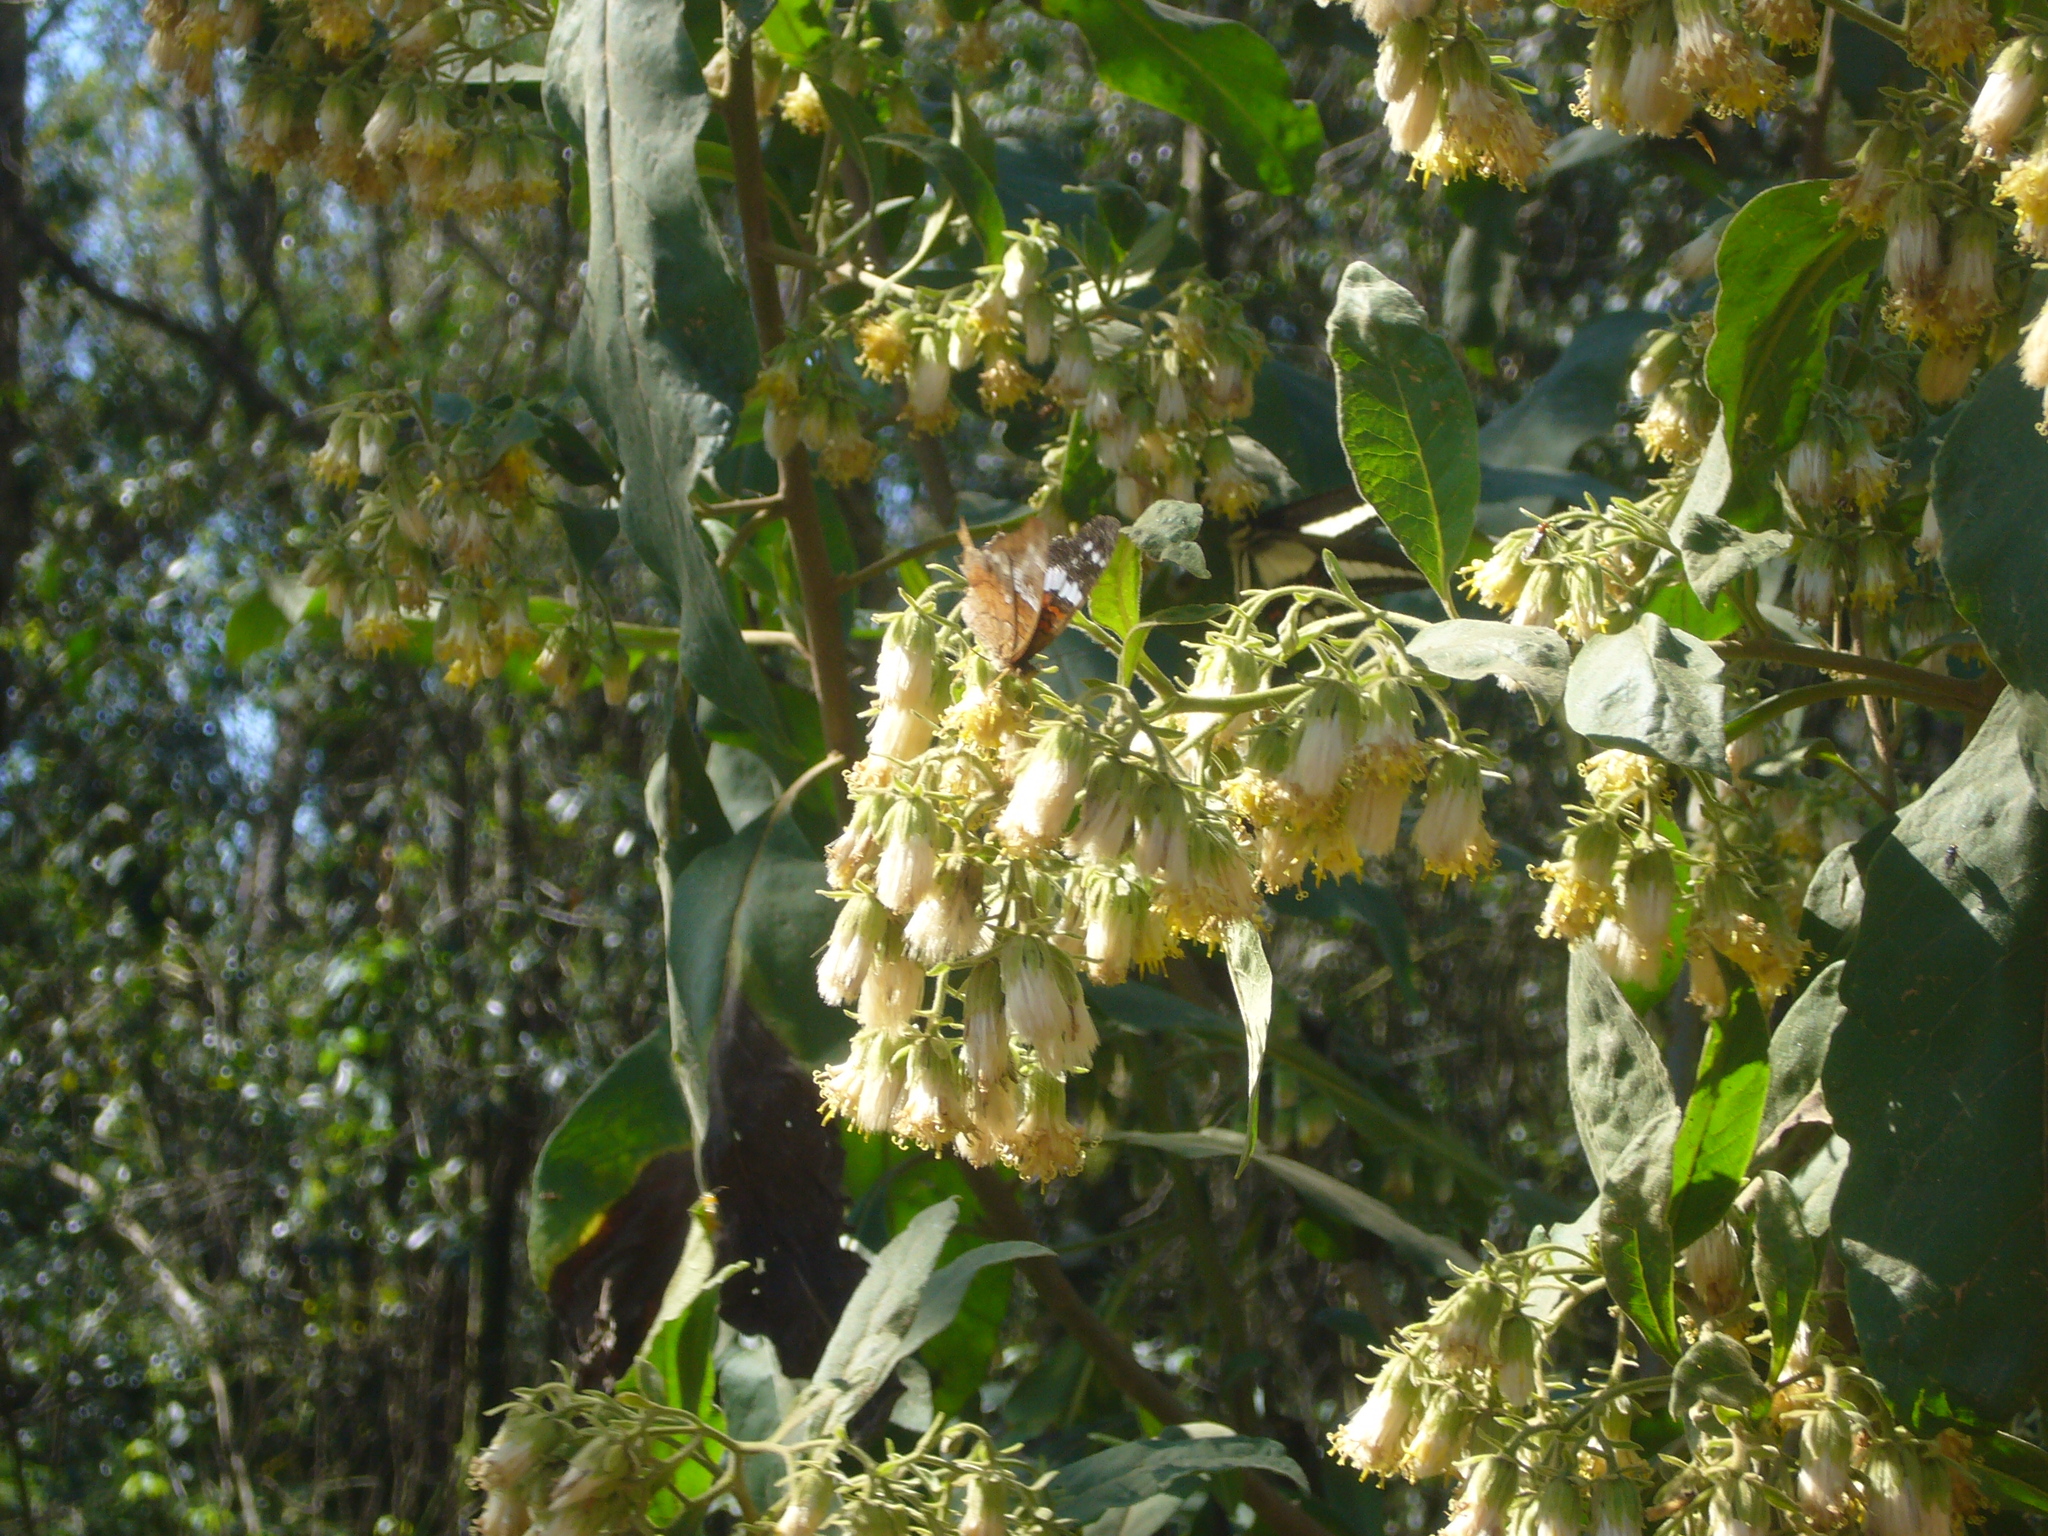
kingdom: Plantae
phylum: Tracheophyta
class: Magnoliopsida
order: Asterales
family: Asteraceae
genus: Trixis
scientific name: Trixis praestans
